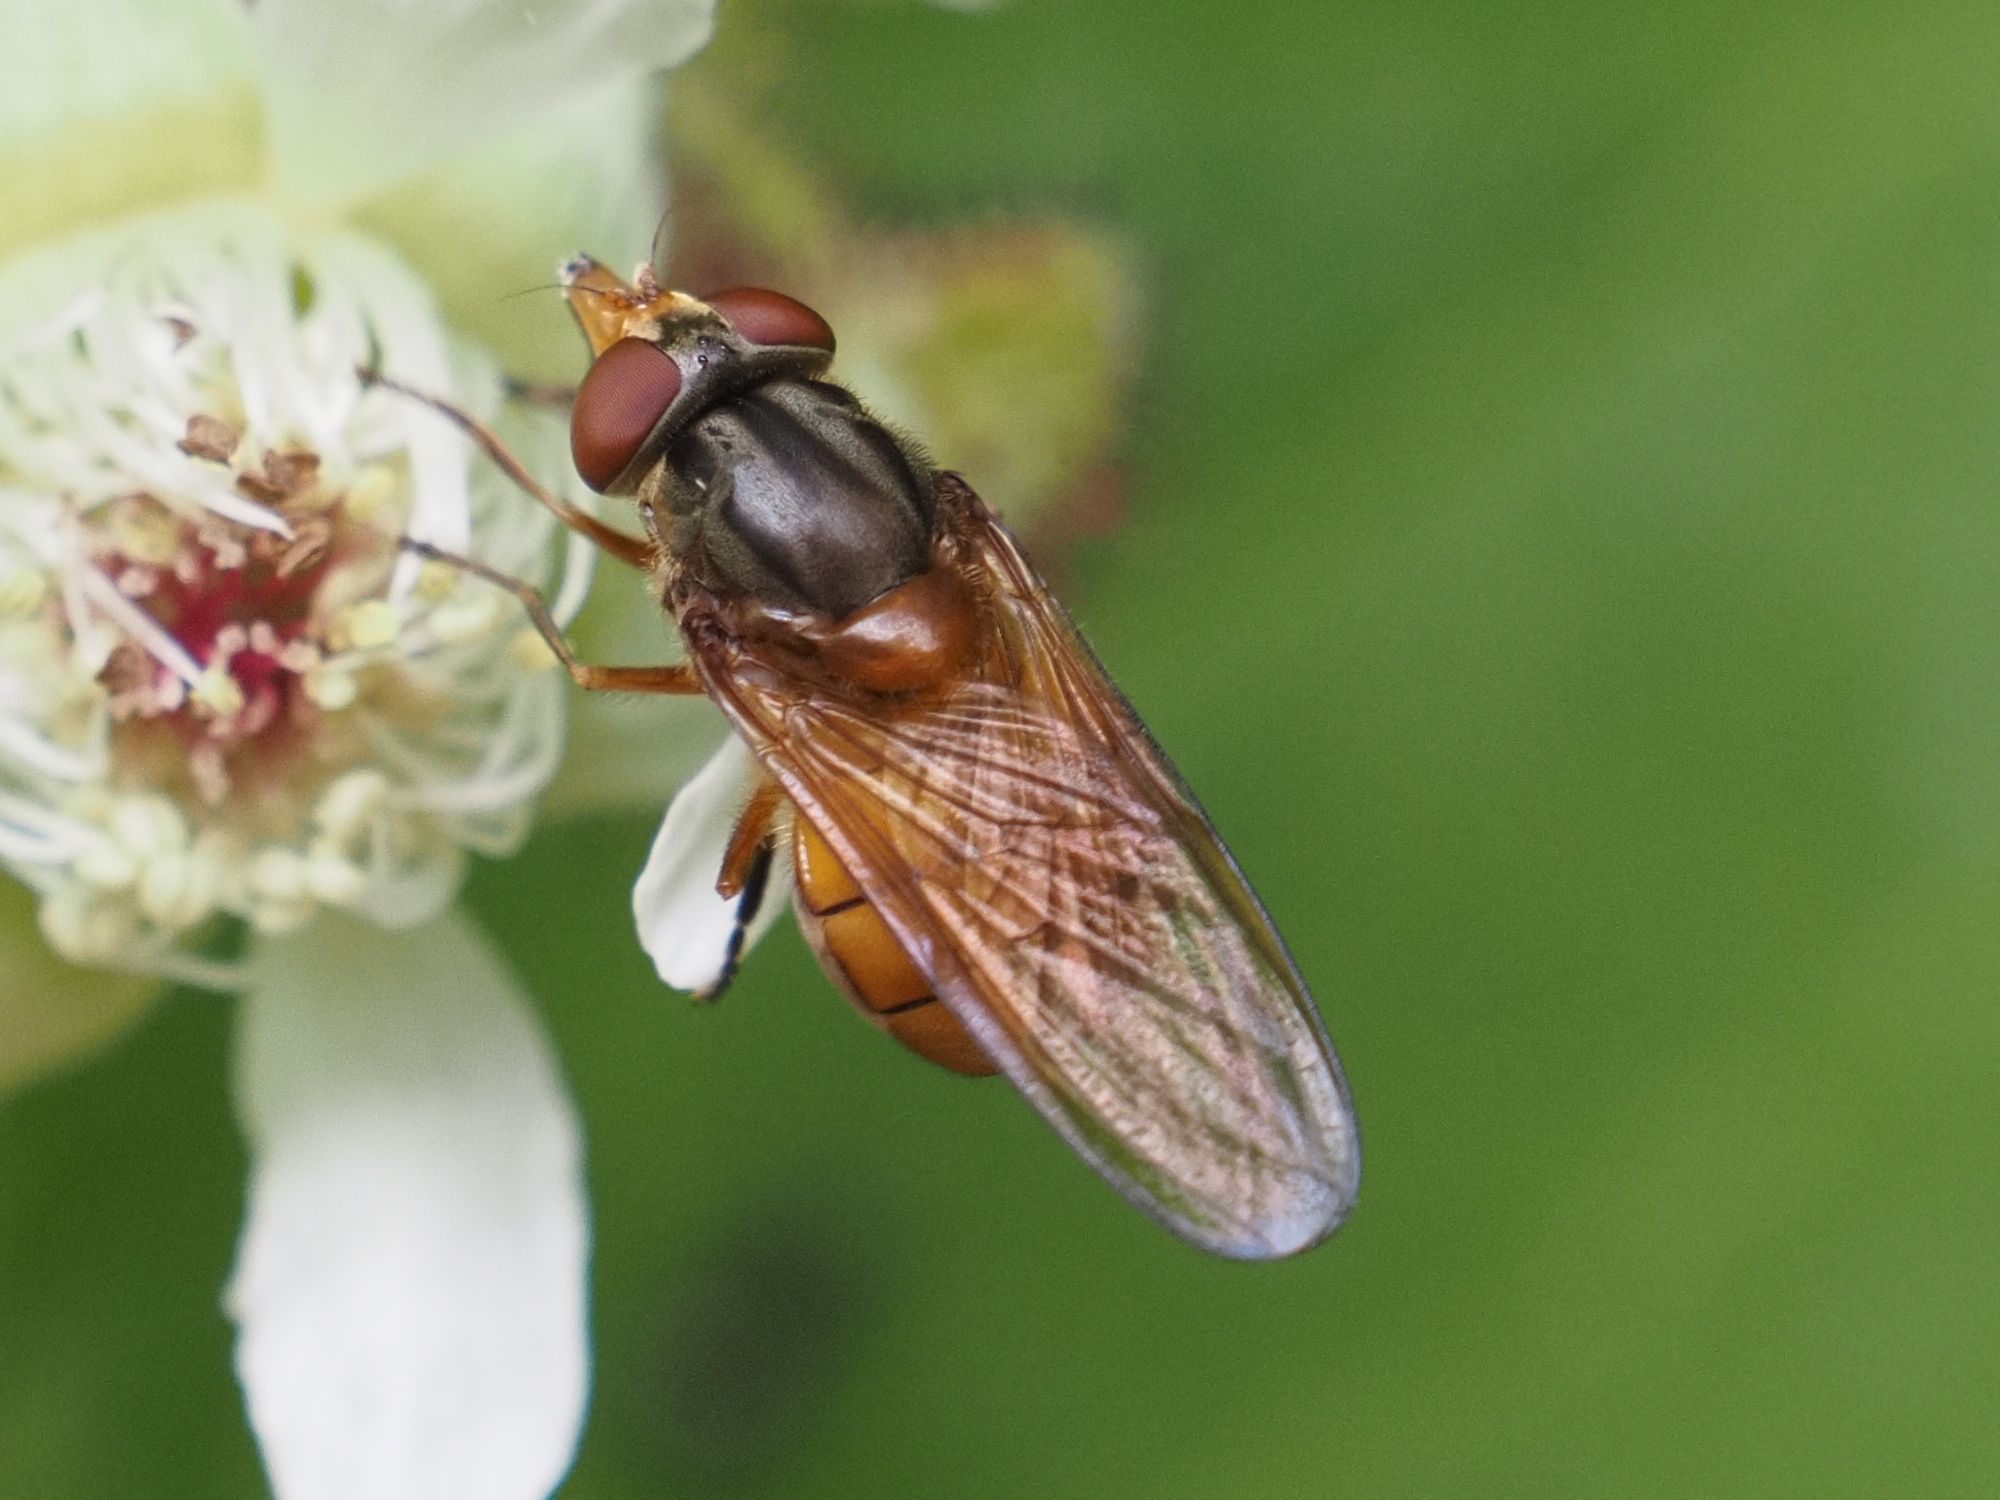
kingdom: Animalia
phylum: Arthropoda
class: Insecta
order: Diptera
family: Syrphidae
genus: Rhingia
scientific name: Rhingia campestris
